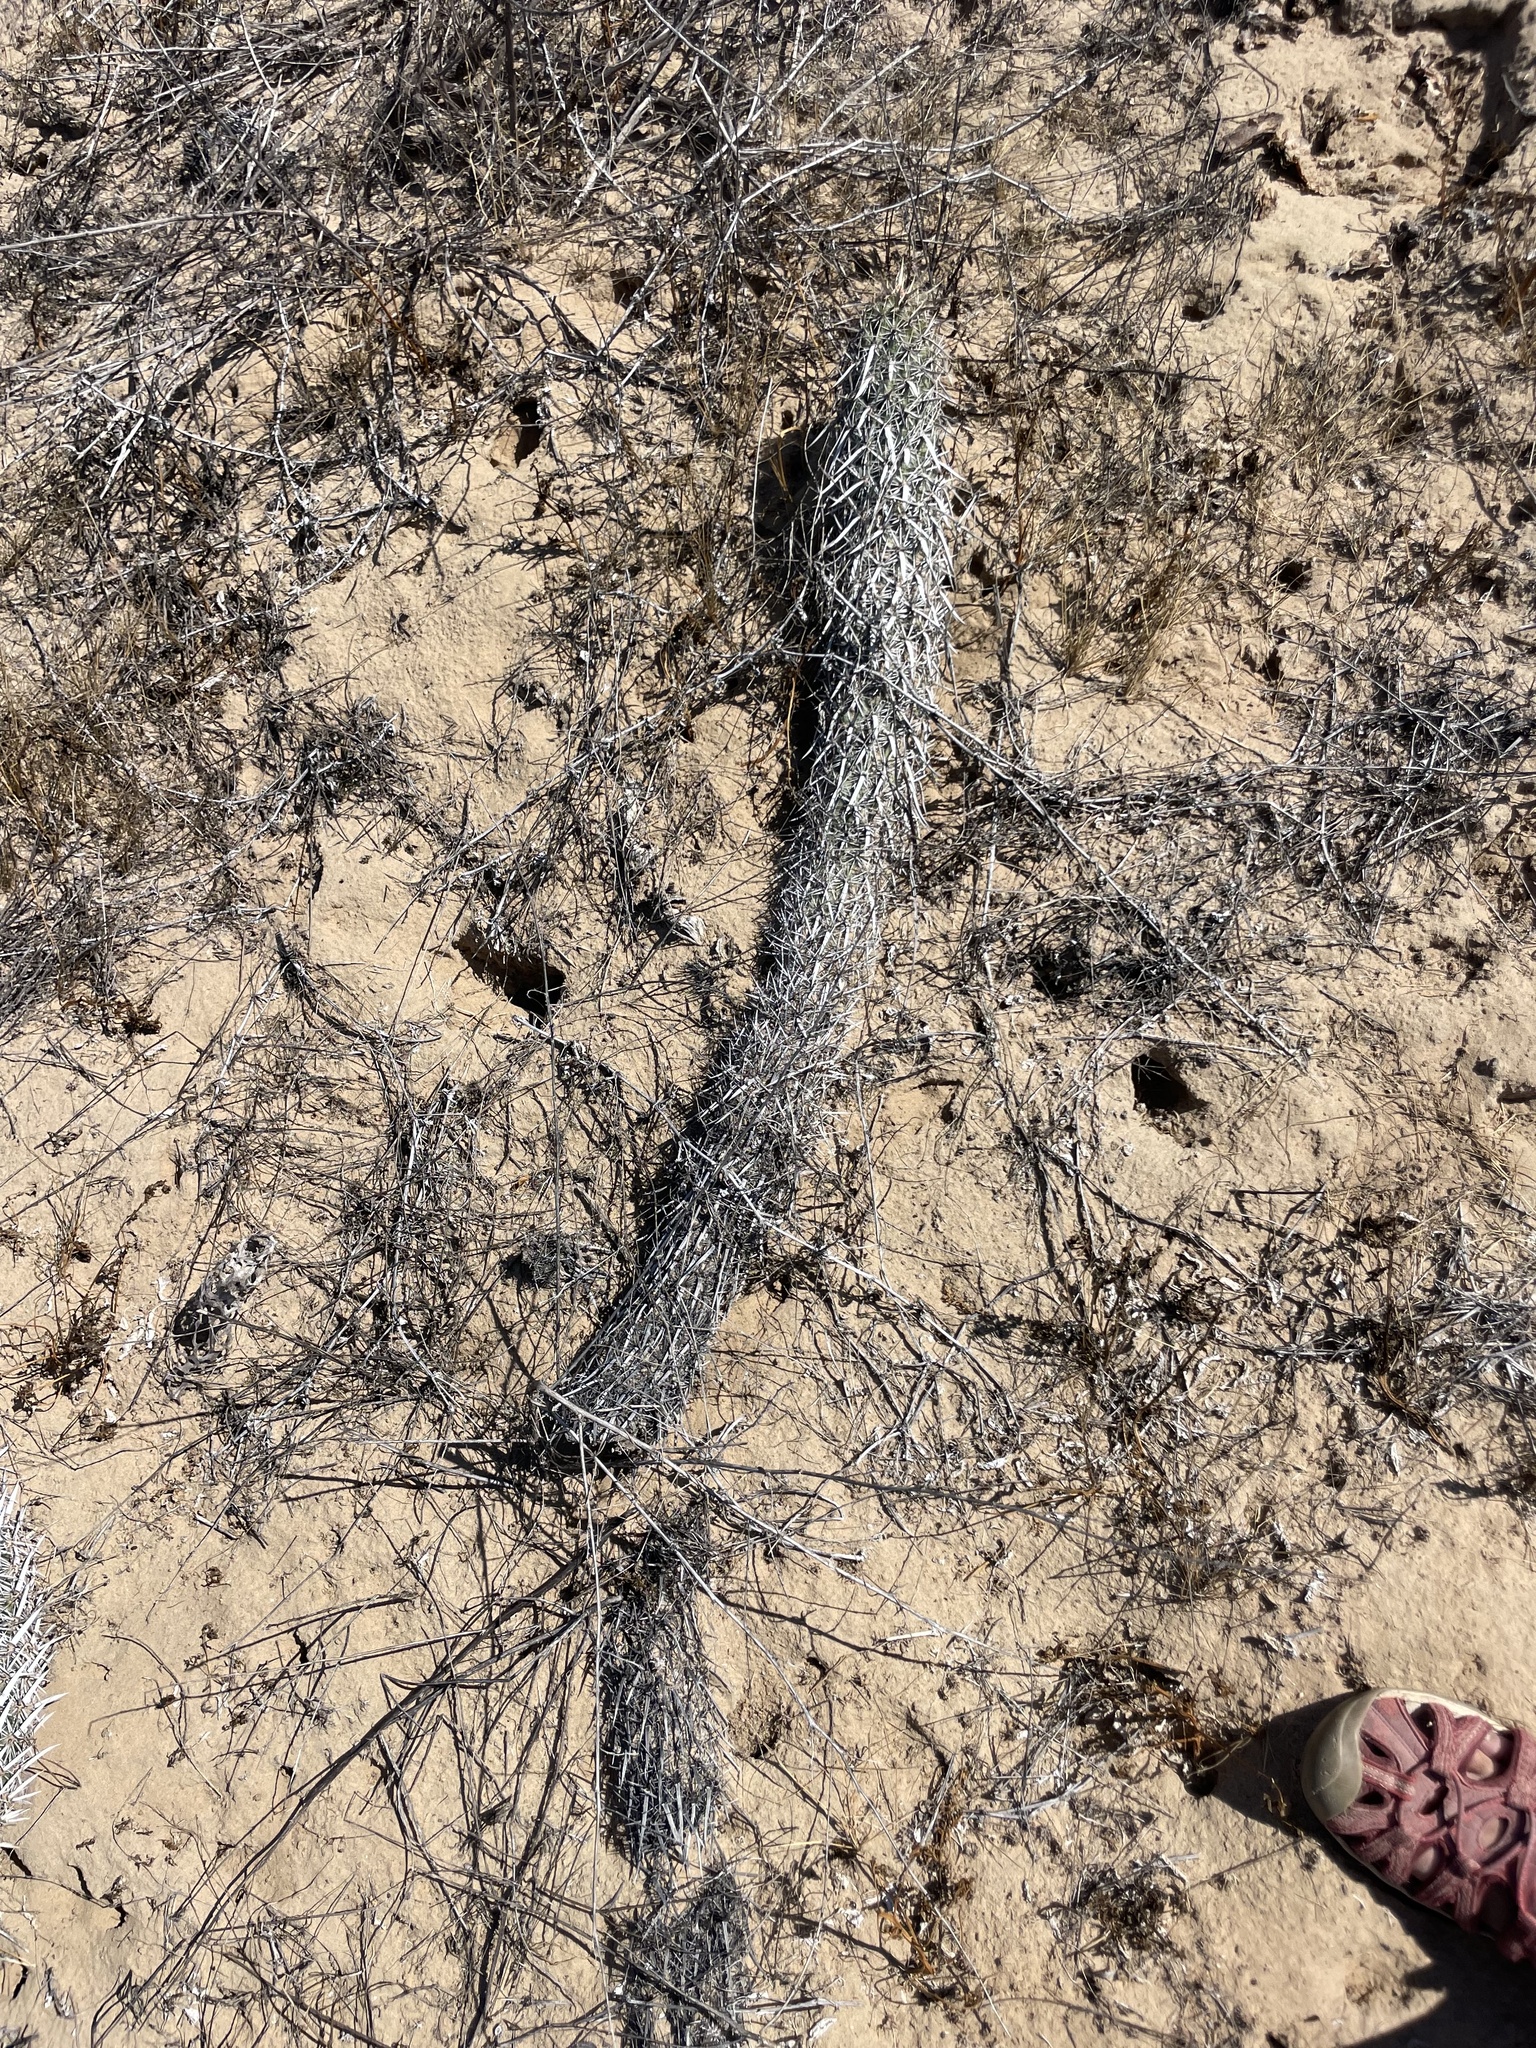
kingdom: Plantae
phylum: Tracheophyta
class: Magnoliopsida
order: Caryophyllales
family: Cactaceae
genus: Stenocereus
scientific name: Stenocereus eruca
